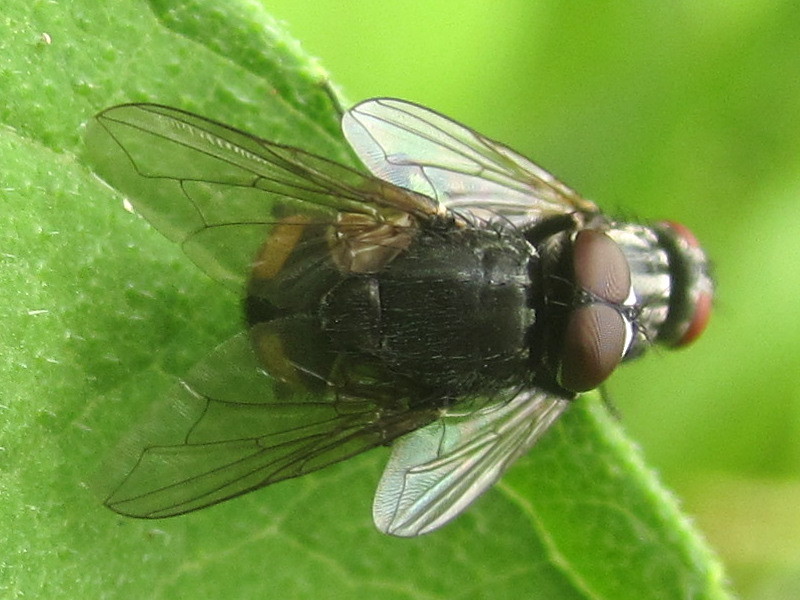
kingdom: Animalia
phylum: Arthropoda
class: Insecta
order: Diptera
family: Muscidae
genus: Musca
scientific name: Musca autumnalis
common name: Face fly
